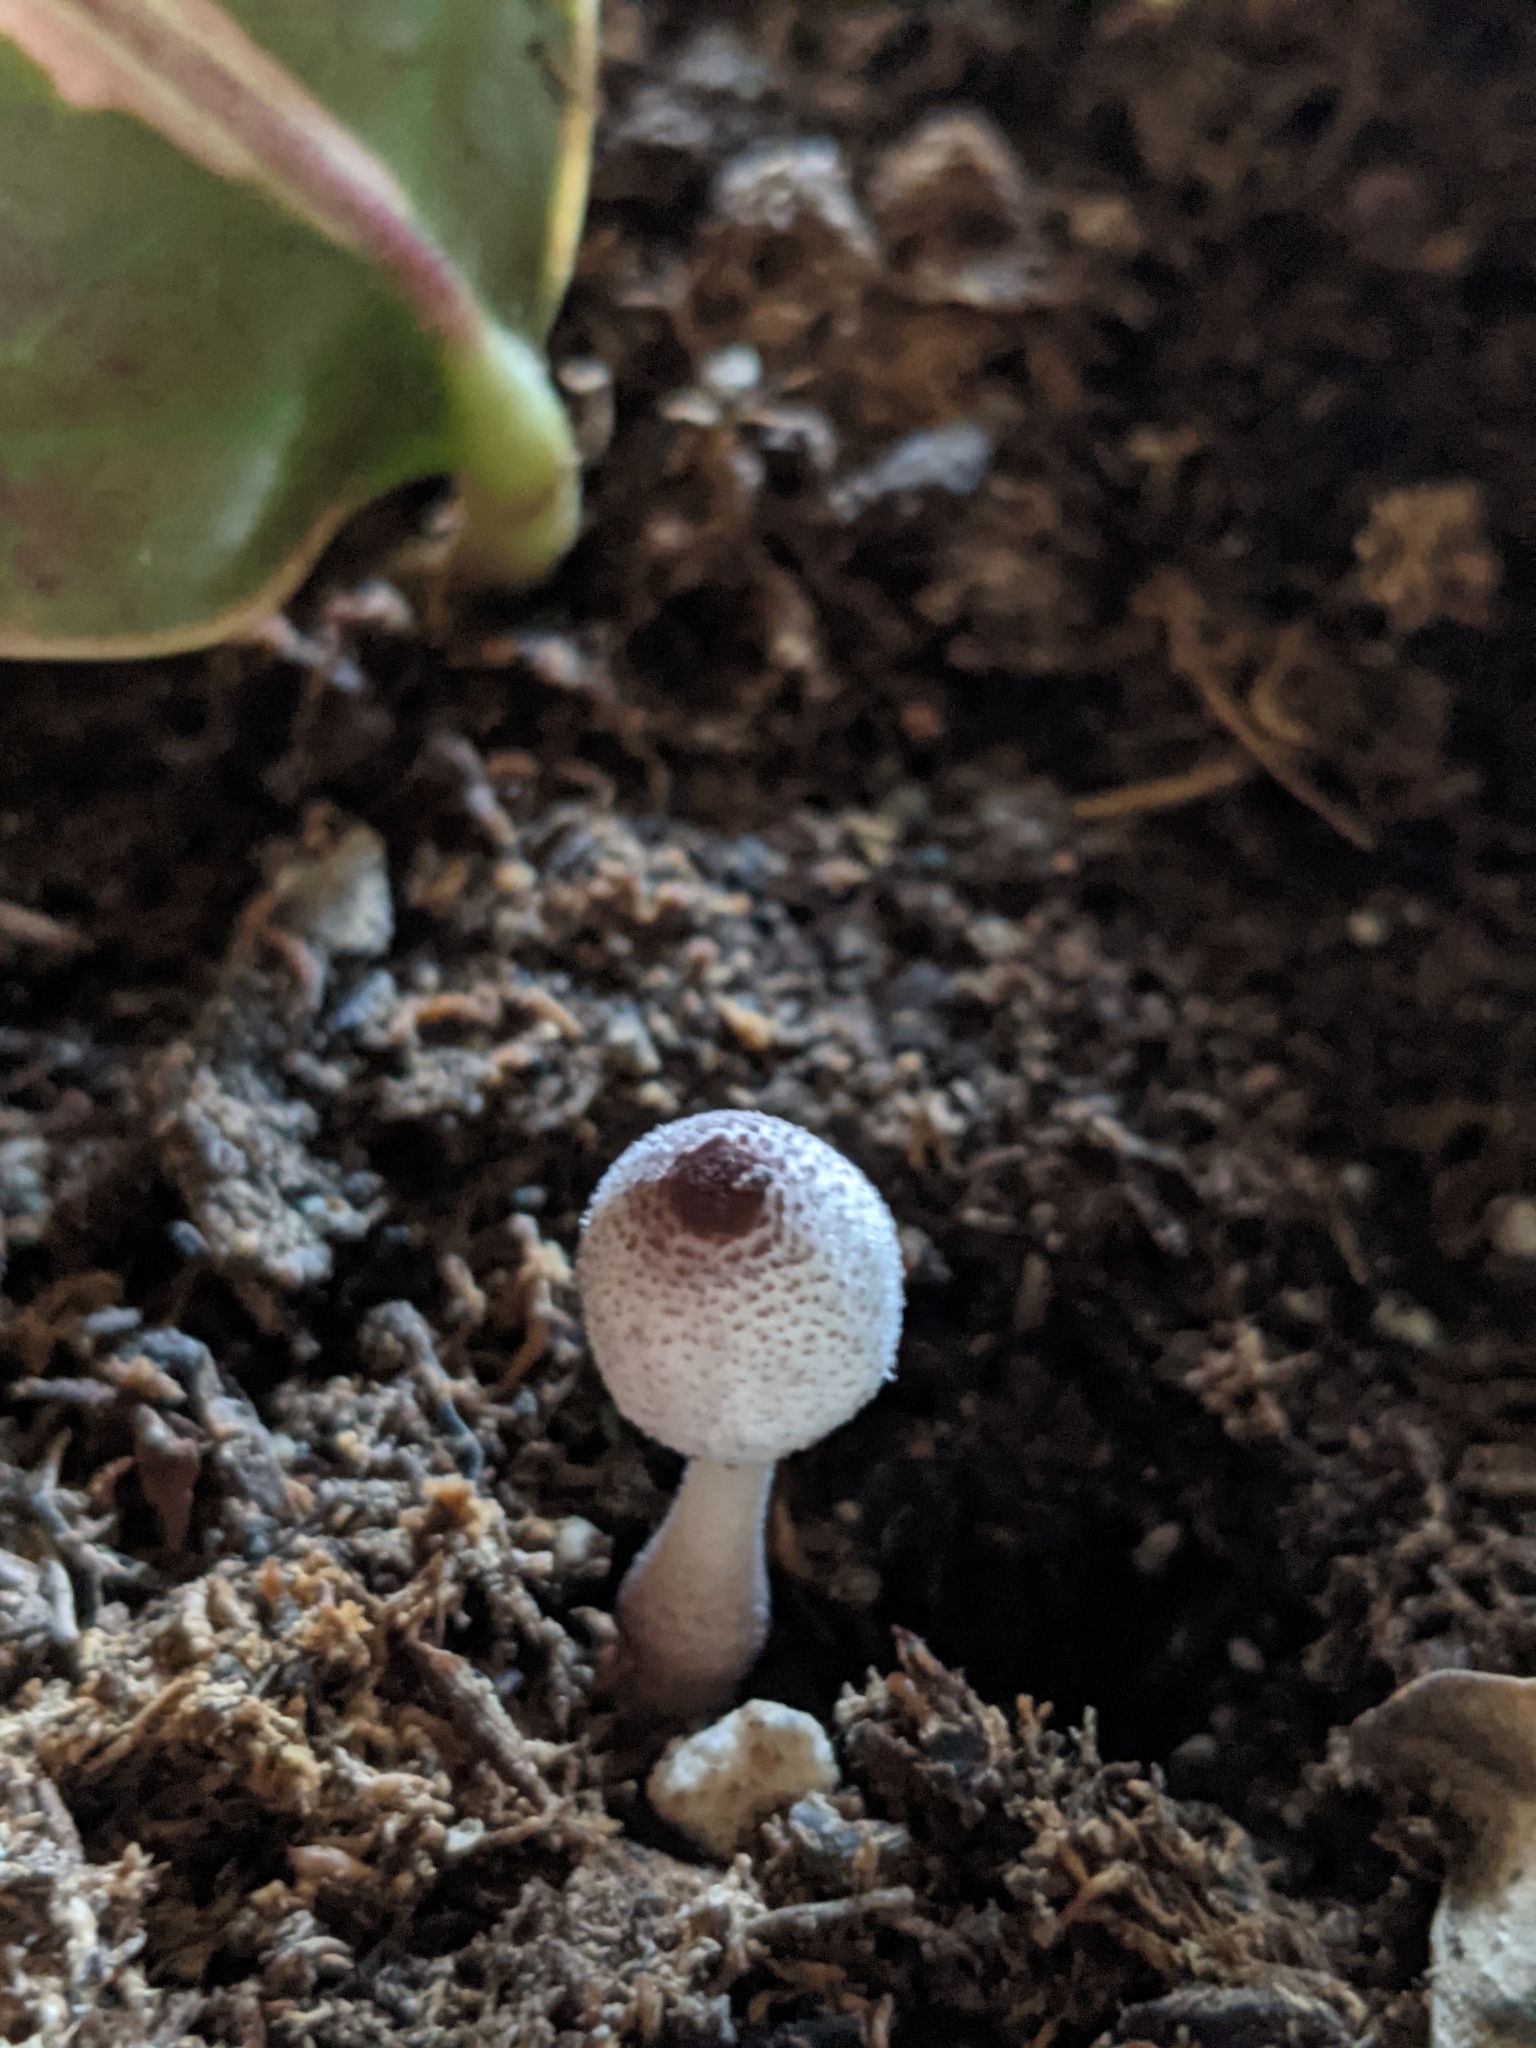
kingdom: Fungi
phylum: Basidiomycota
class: Agaricomycetes
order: Agaricales
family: Agaricaceae
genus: Leucocoprinus
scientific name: Leucocoprinus ianthinus
